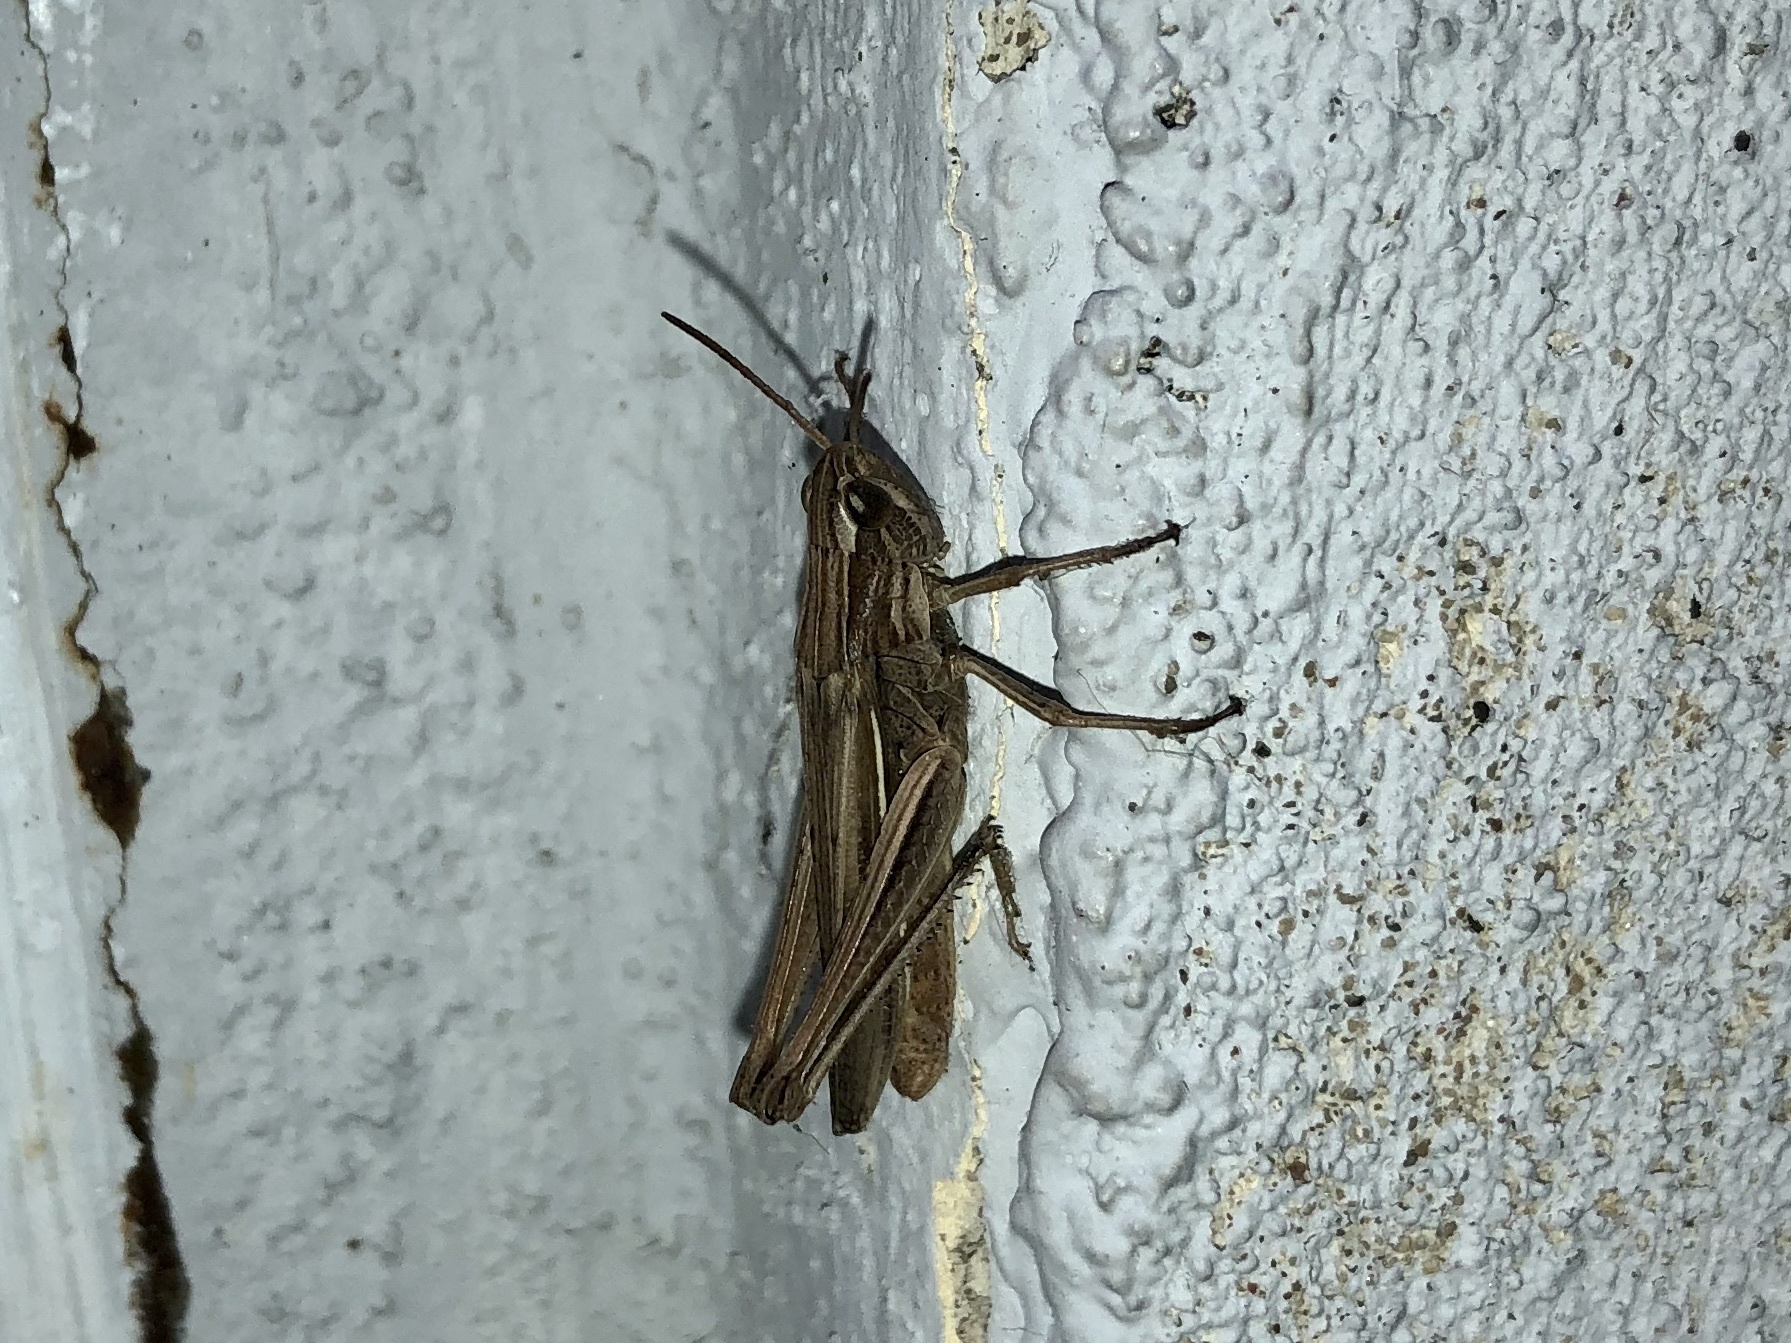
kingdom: Animalia
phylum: Arthropoda
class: Insecta
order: Orthoptera
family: Acrididae
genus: Chorthippus
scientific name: Chorthippus albomarginatus
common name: Lesser marsh grasshopper
